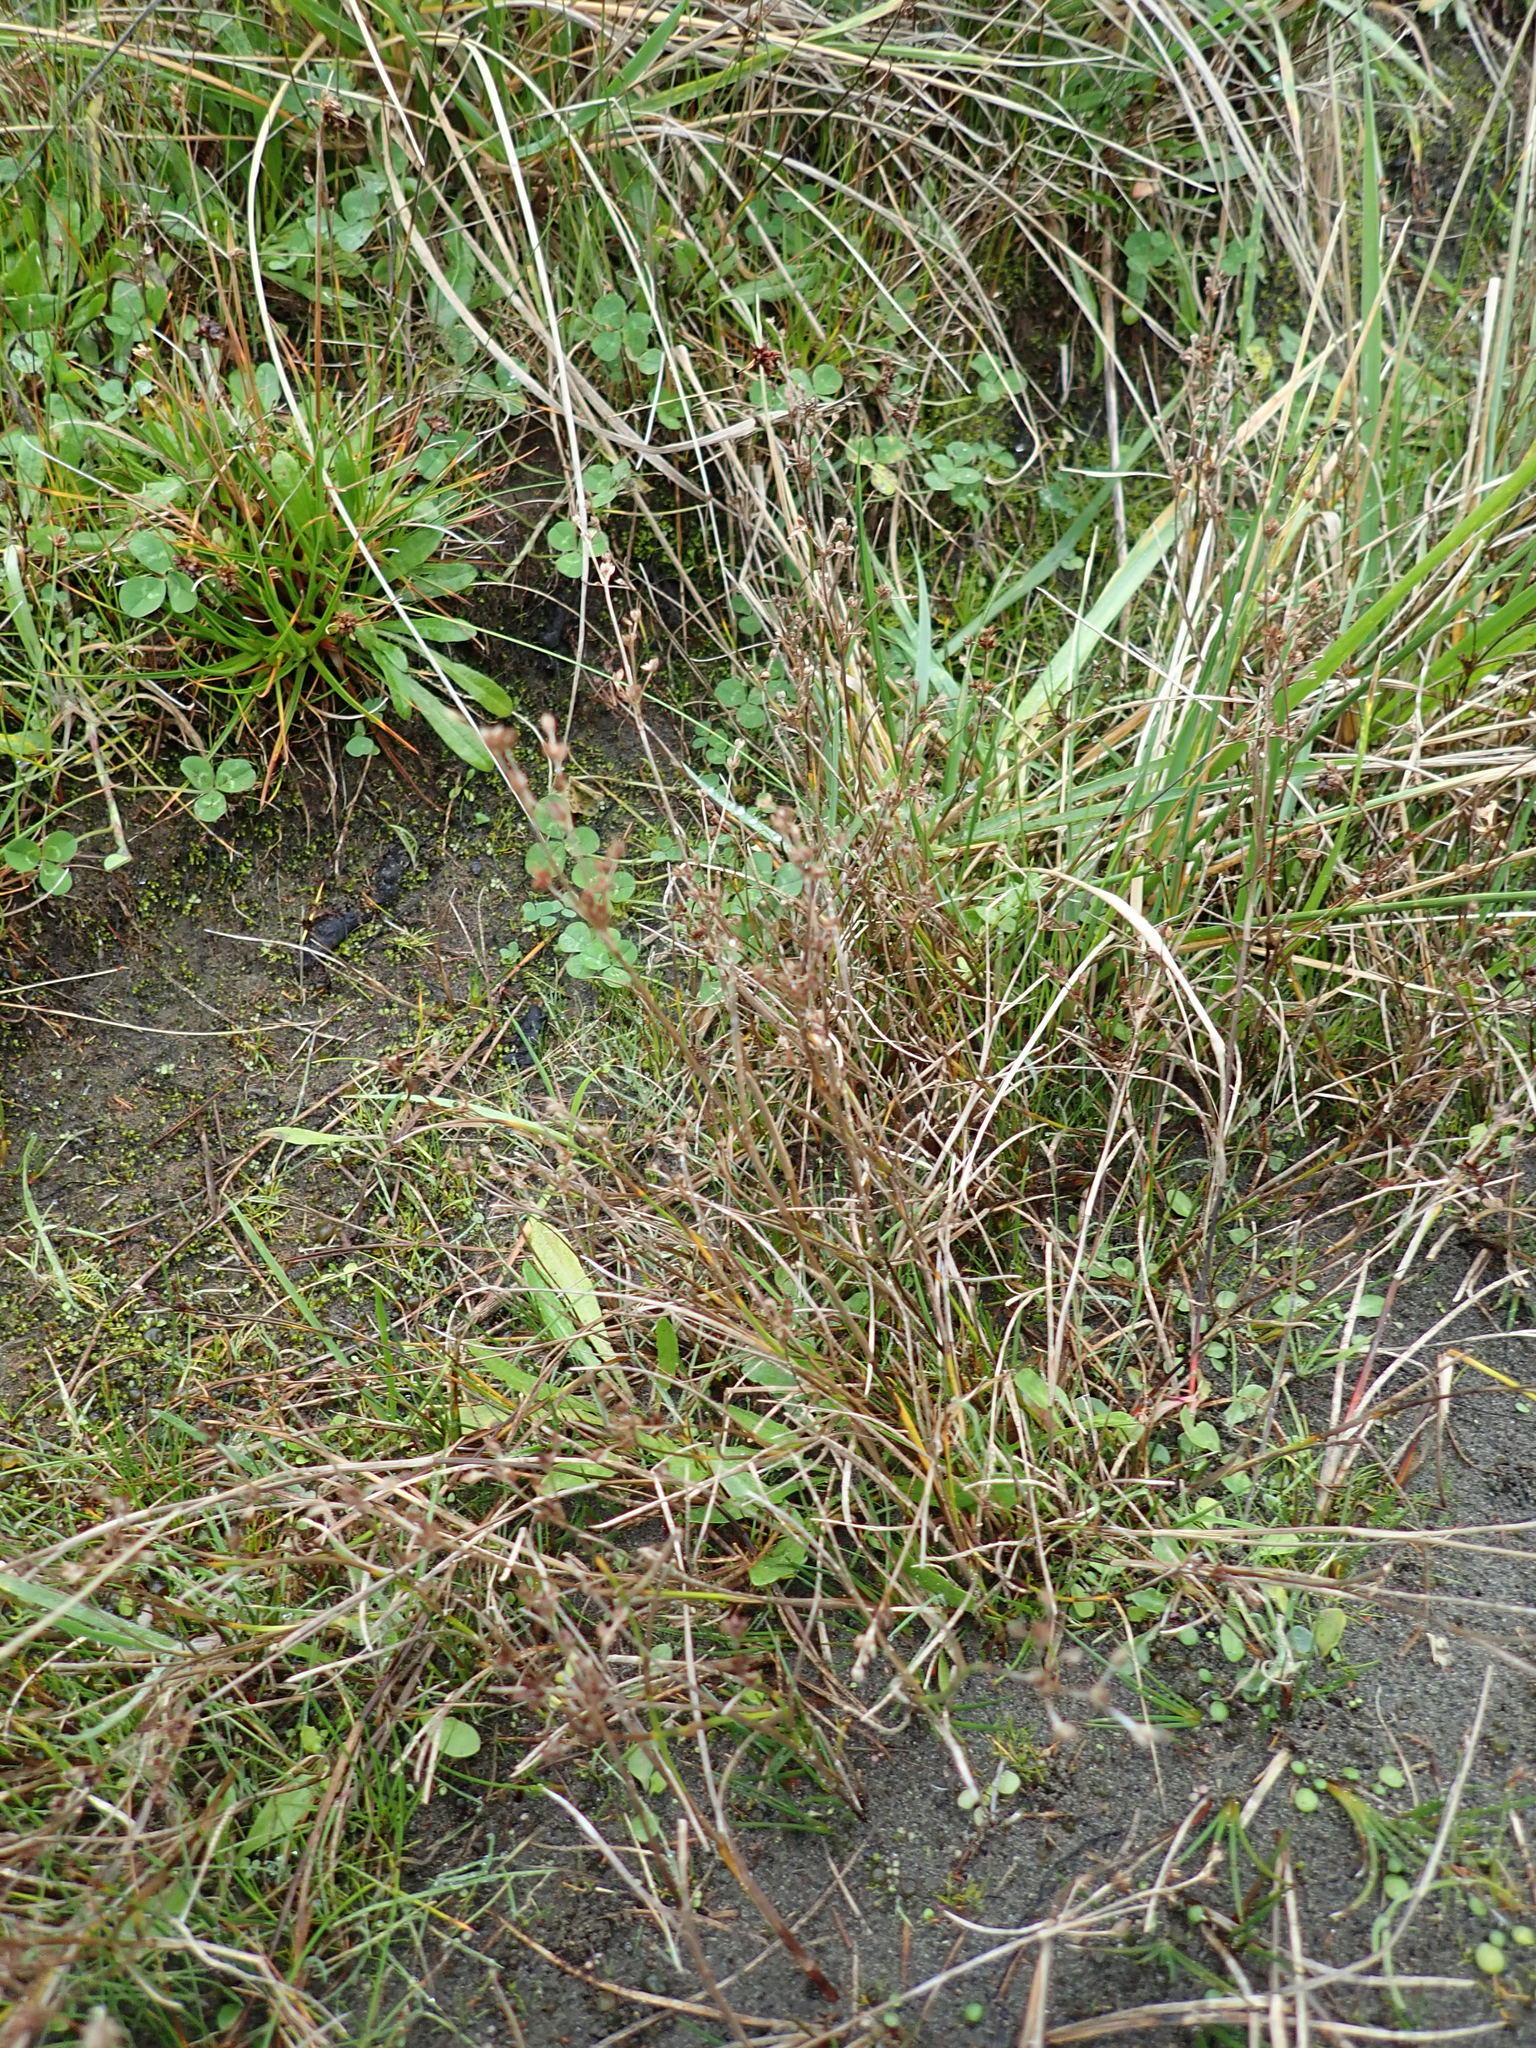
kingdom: Plantae
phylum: Tracheophyta
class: Liliopsida
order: Poales
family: Juncaceae
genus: Juncus
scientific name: Juncus articulatus
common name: Jointed rush
